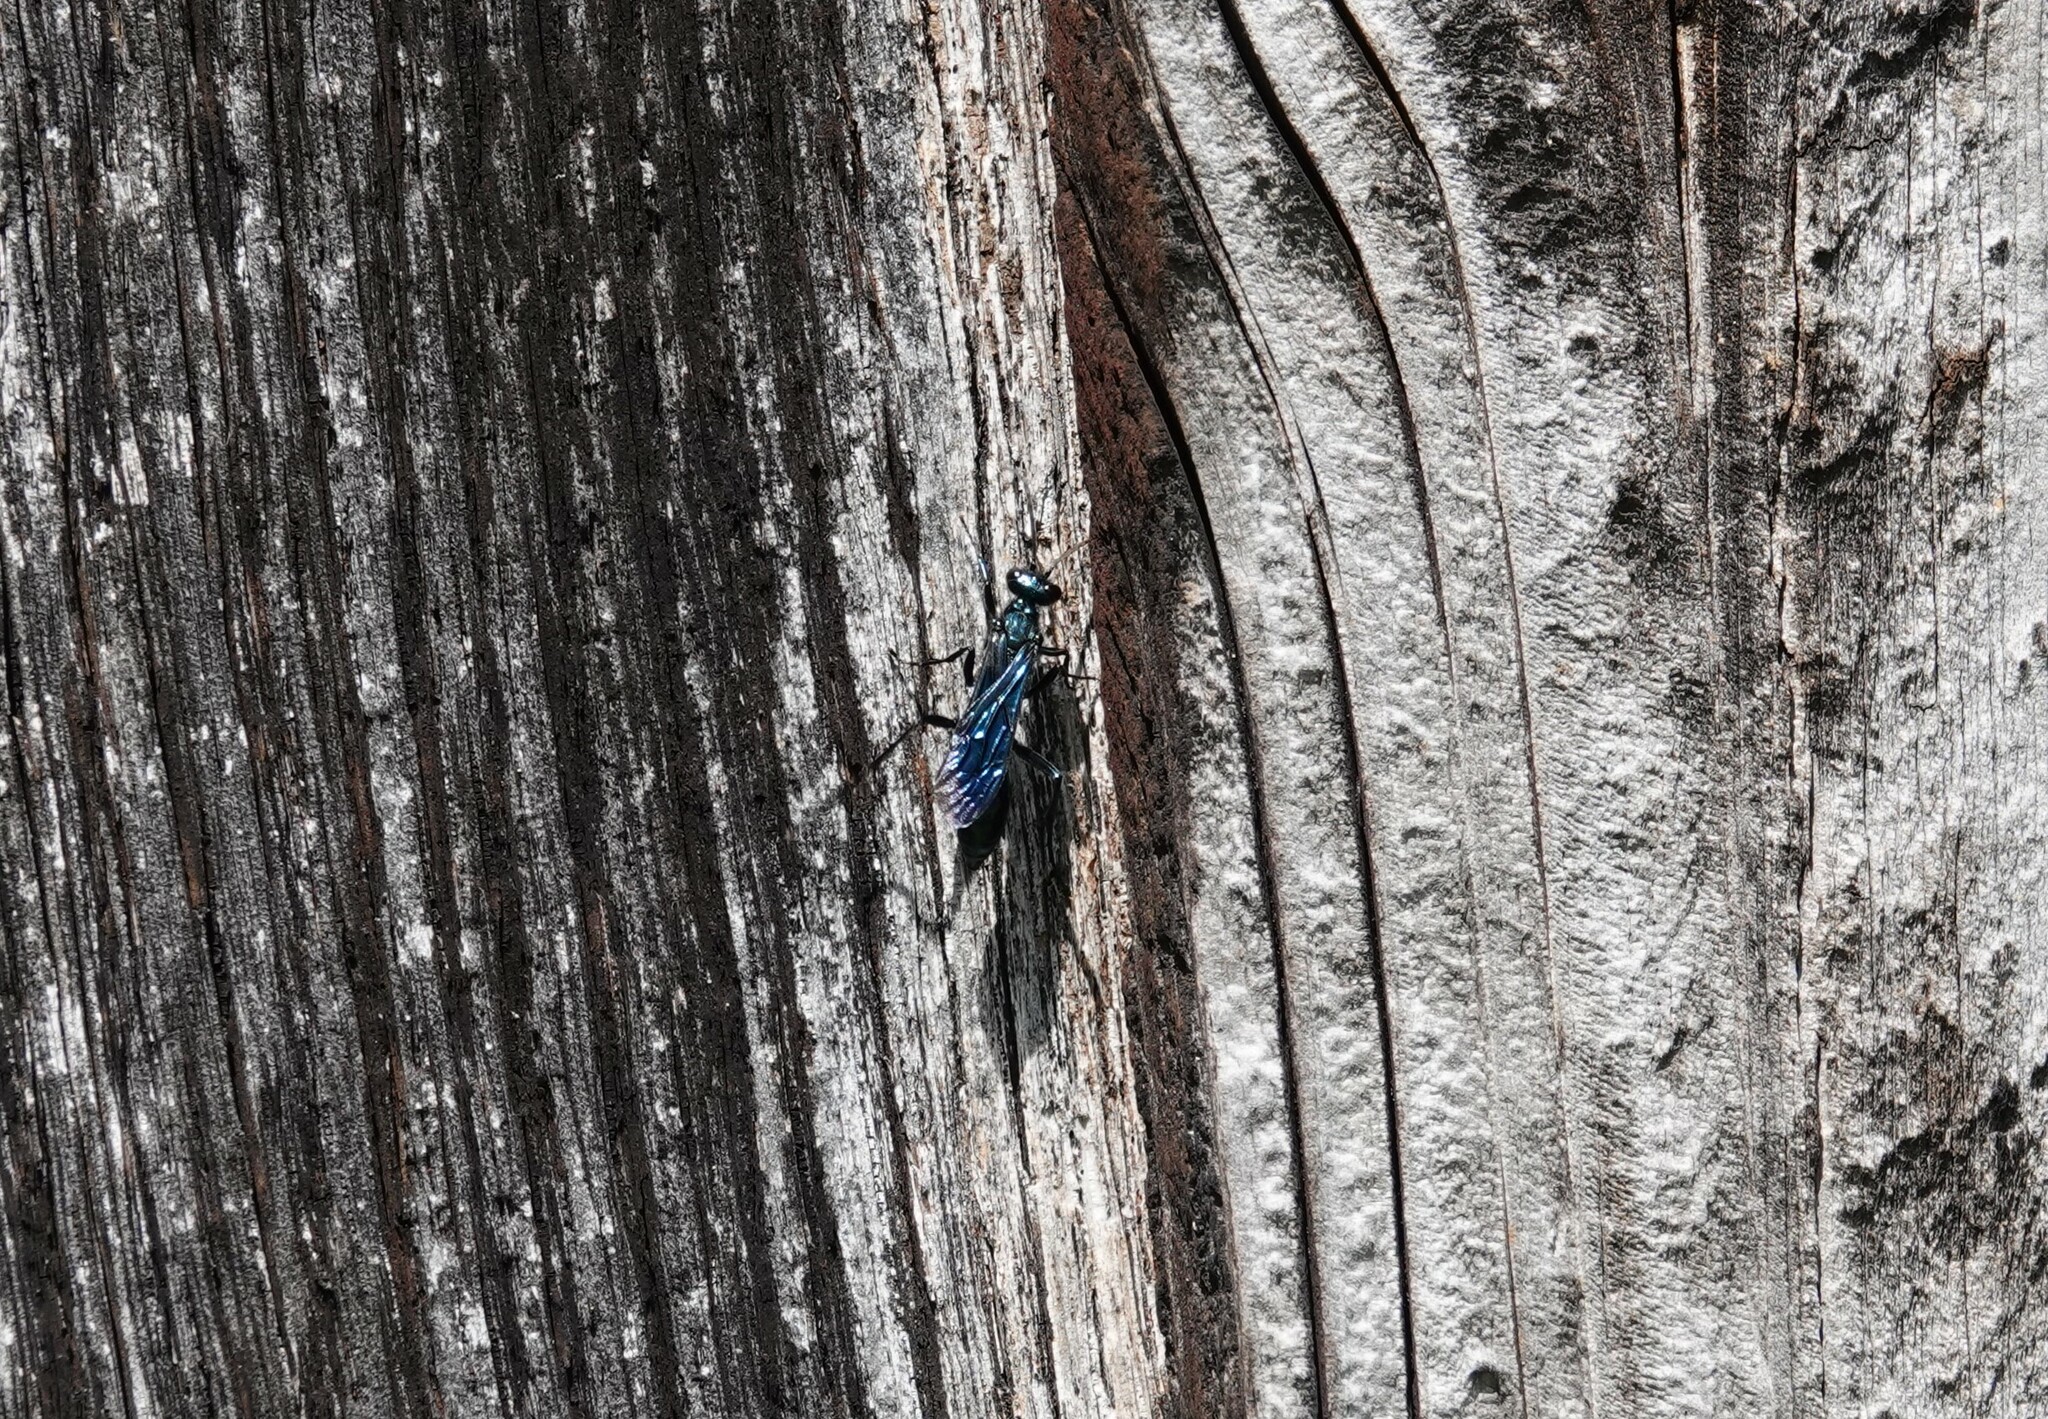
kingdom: Animalia
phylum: Arthropoda
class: Insecta
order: Hymenoptera
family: Sphecidae
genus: Chalybion
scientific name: Chalybion californicum
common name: Mud dauber
